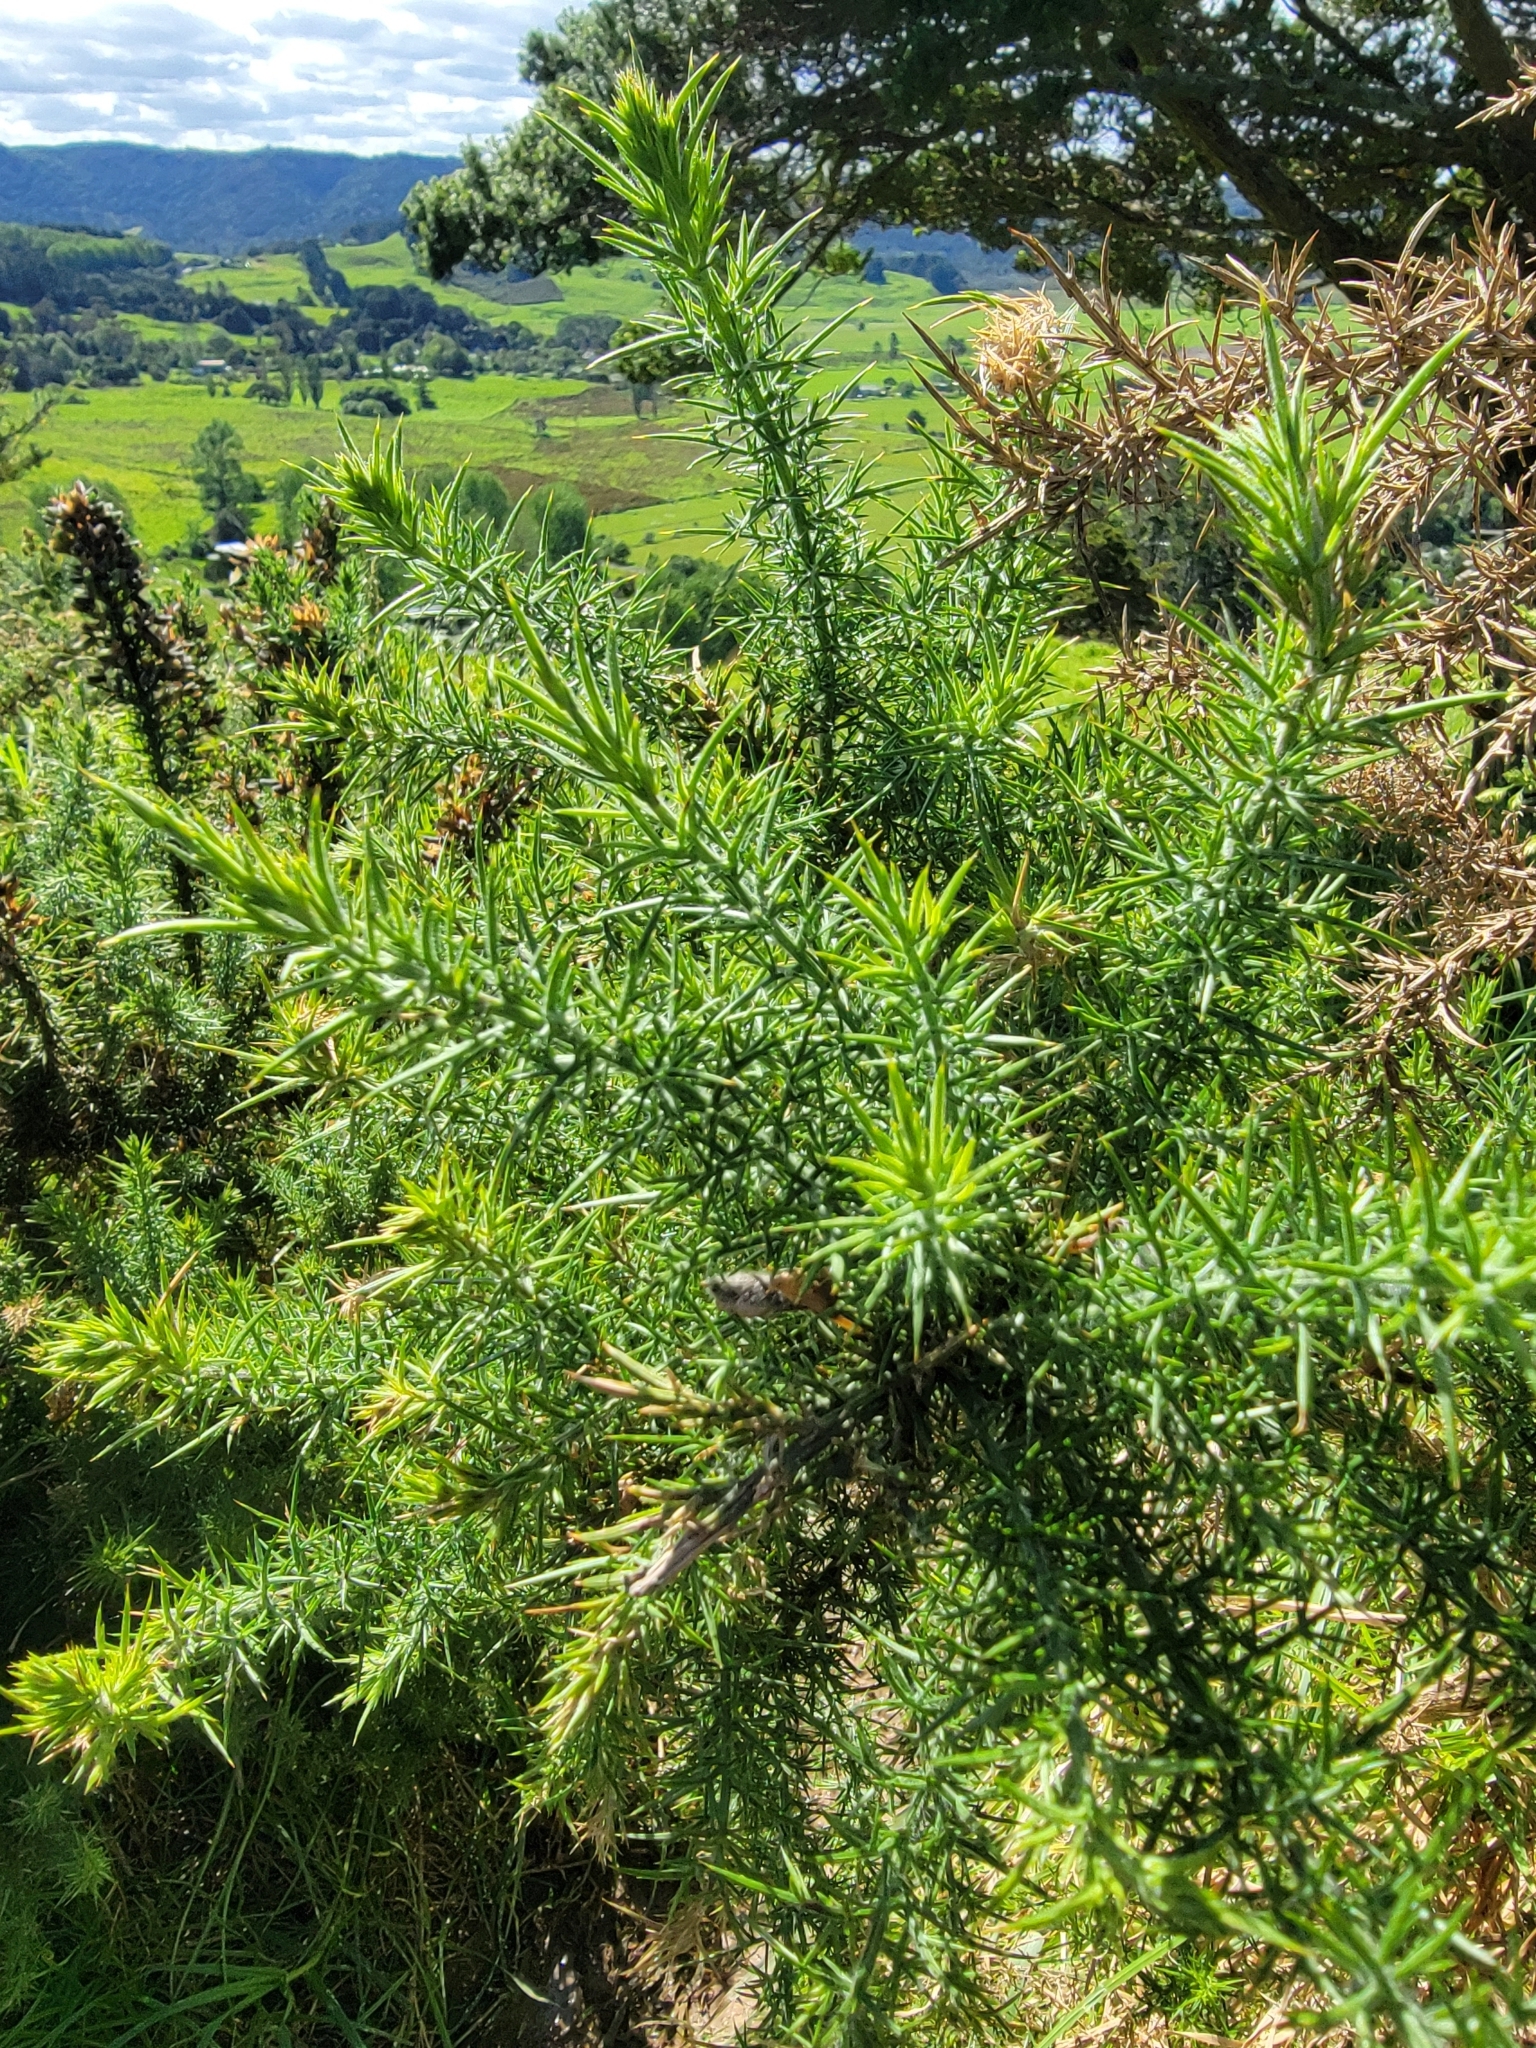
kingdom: Plantae
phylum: Tracheophyta
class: Magnoliopsida
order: Fabales
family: Fabaceae
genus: Ulex
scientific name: Ulex europaeus
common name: Common gorse
